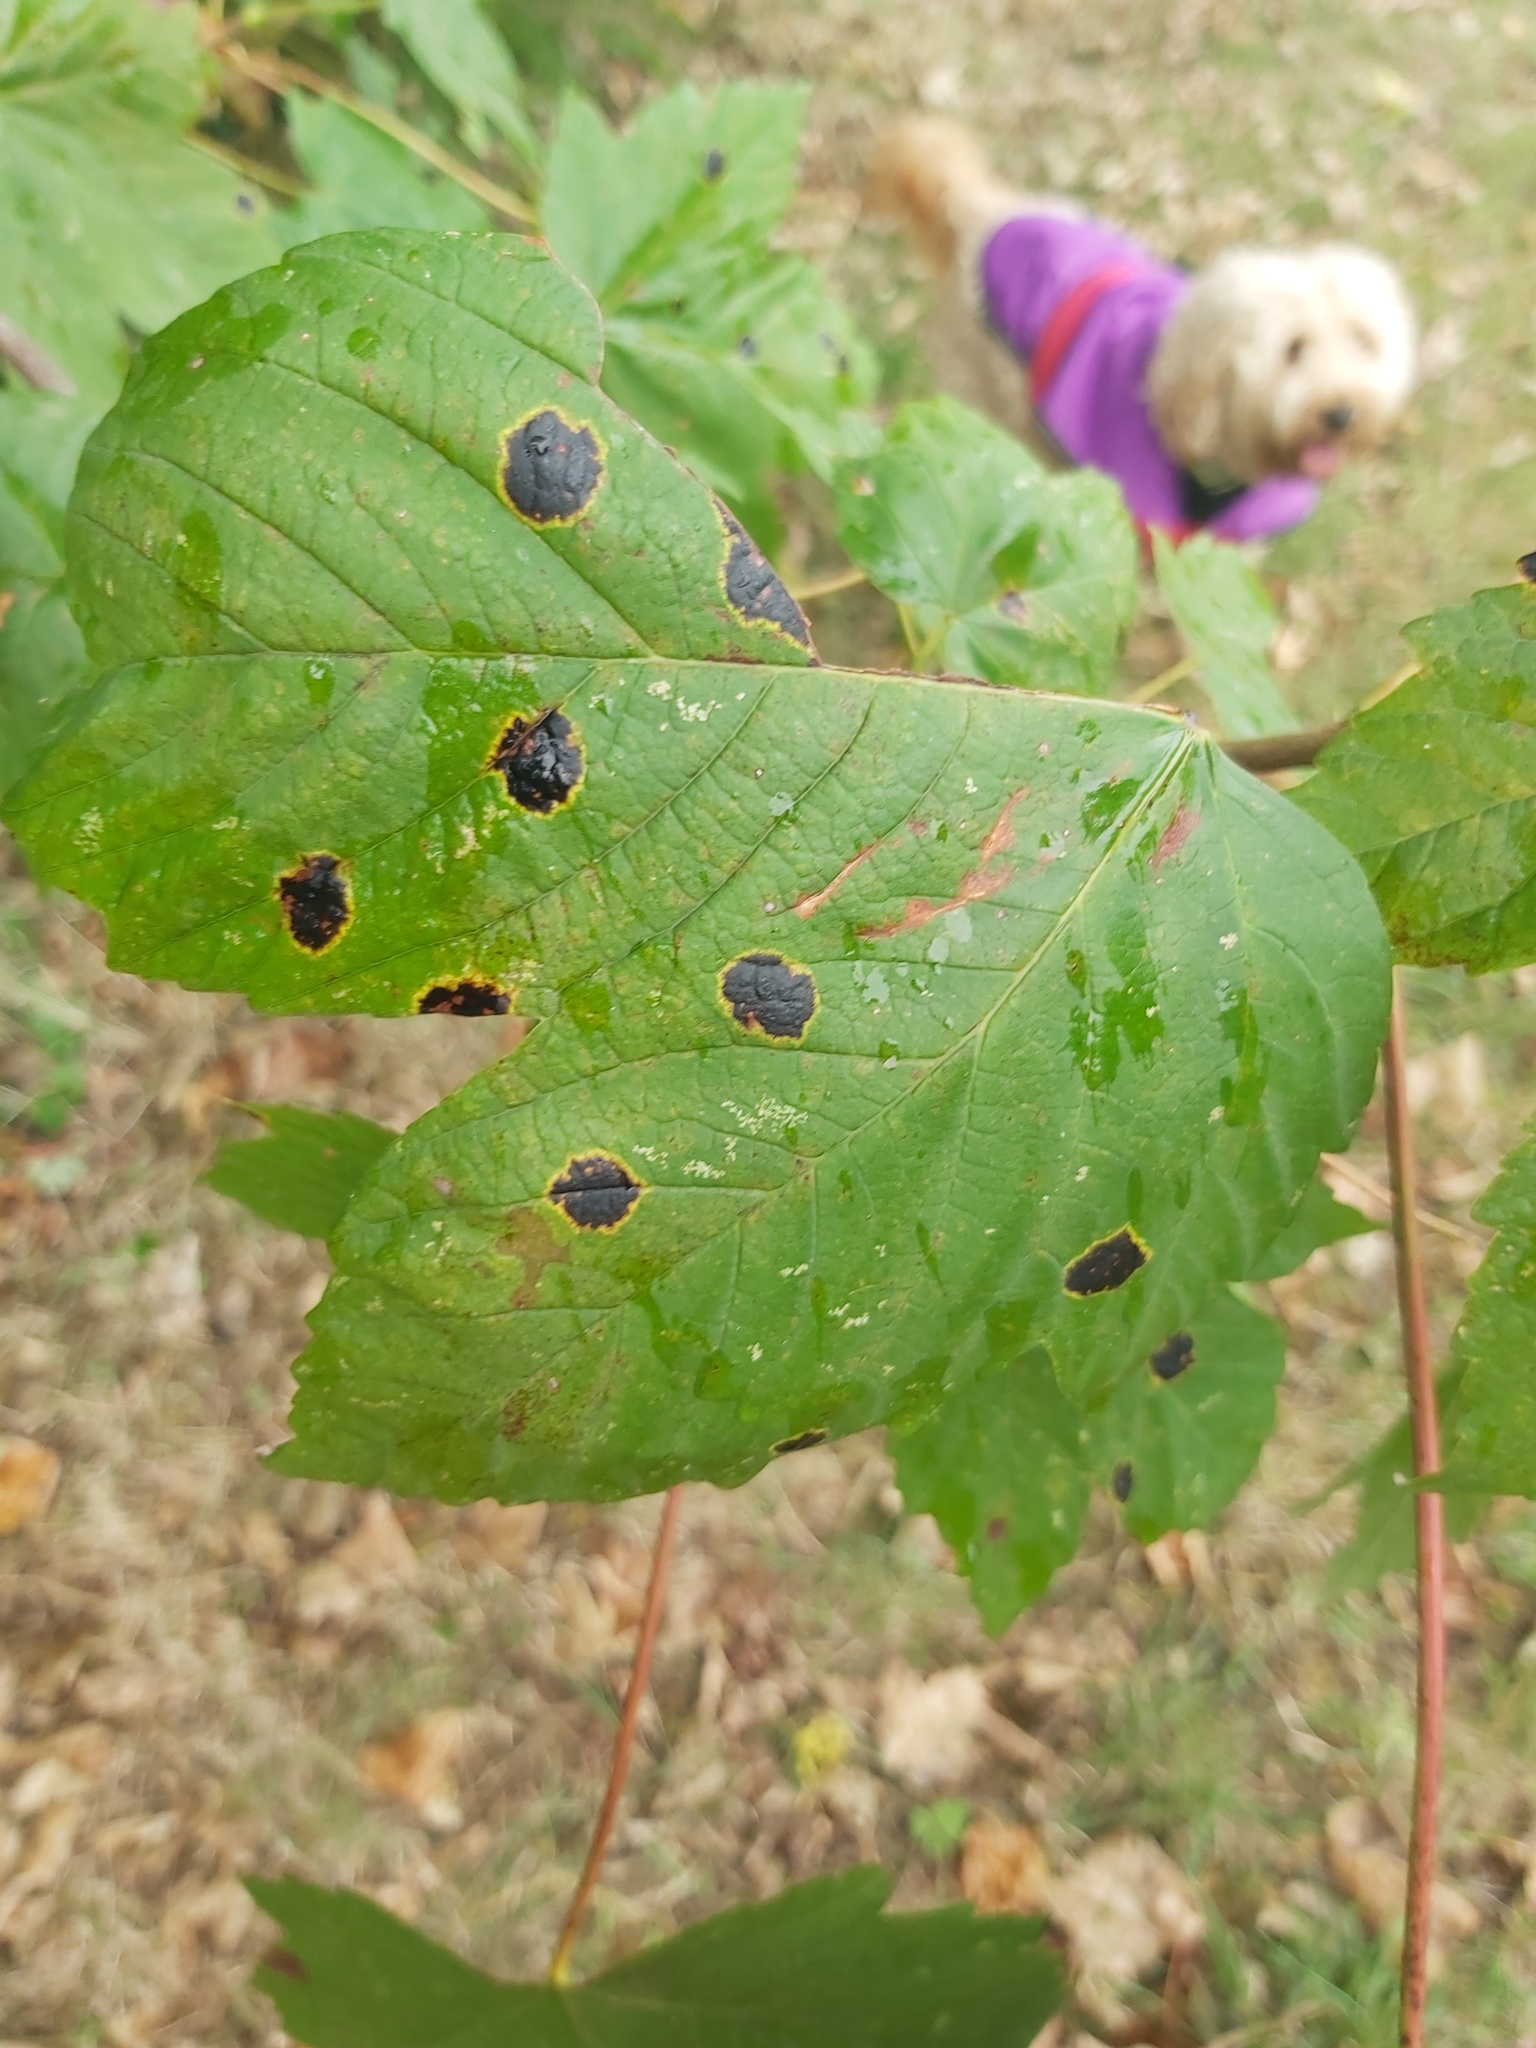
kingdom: Fungi
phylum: Ascomycota
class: Leotiomycetes
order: Rhytismatales
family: Rhytismataceae
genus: Rhytisma
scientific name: Rhytisma acerinum
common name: European tar spot
